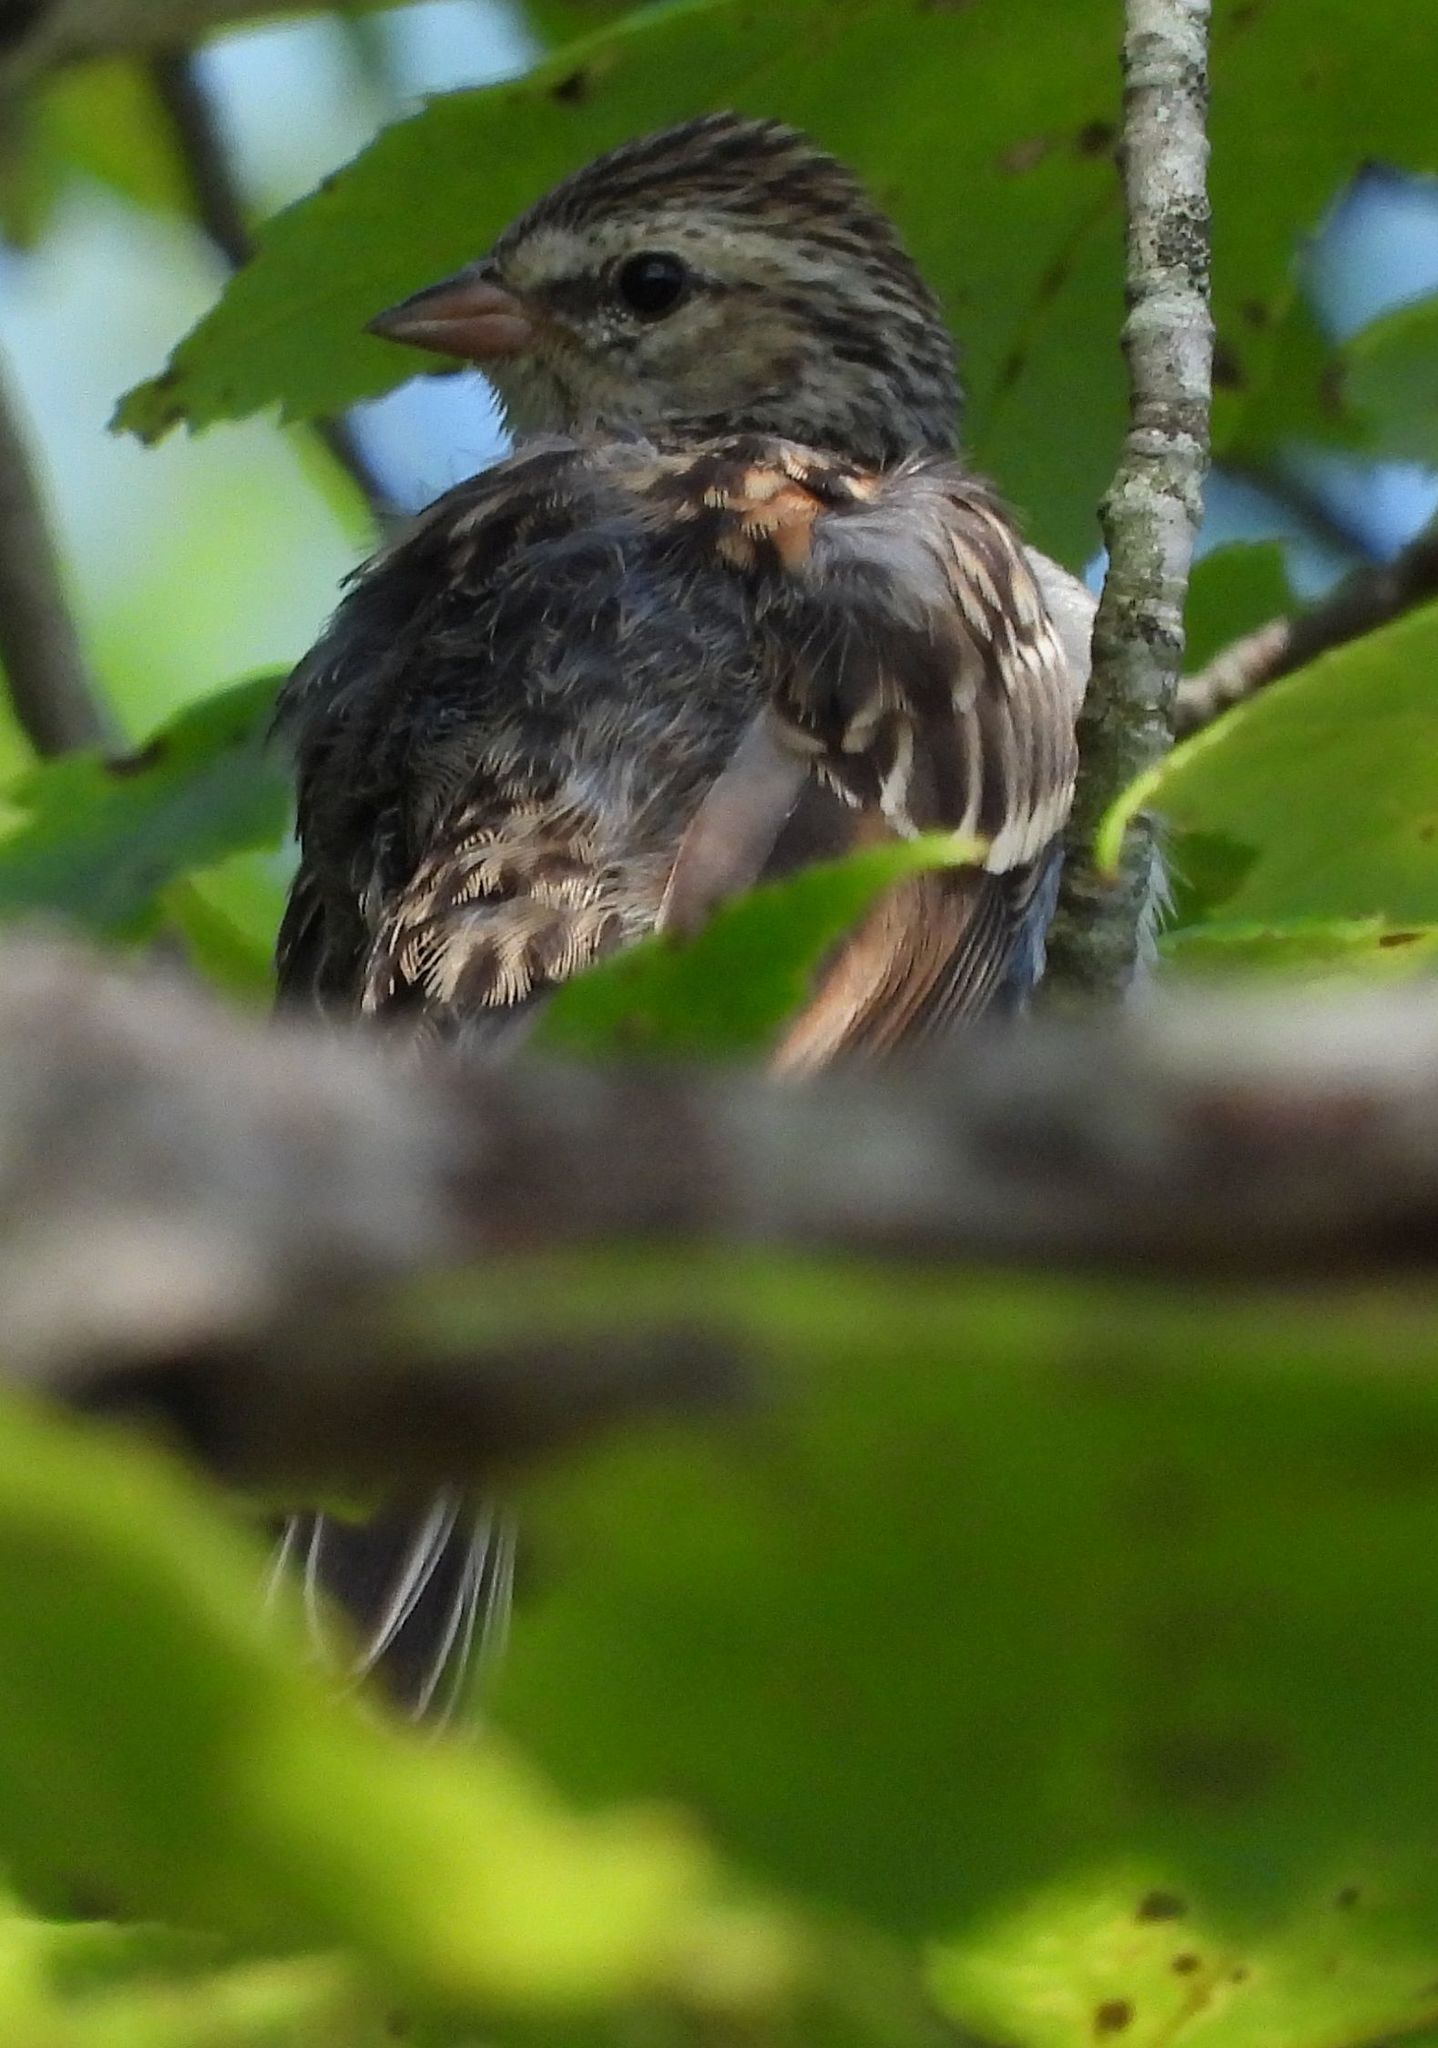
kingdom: Animalia
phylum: Chordata
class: Aves
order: Passeriformes
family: Passerellidae
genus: Spizella
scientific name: Spizella passerina
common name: Chipping sparrow
